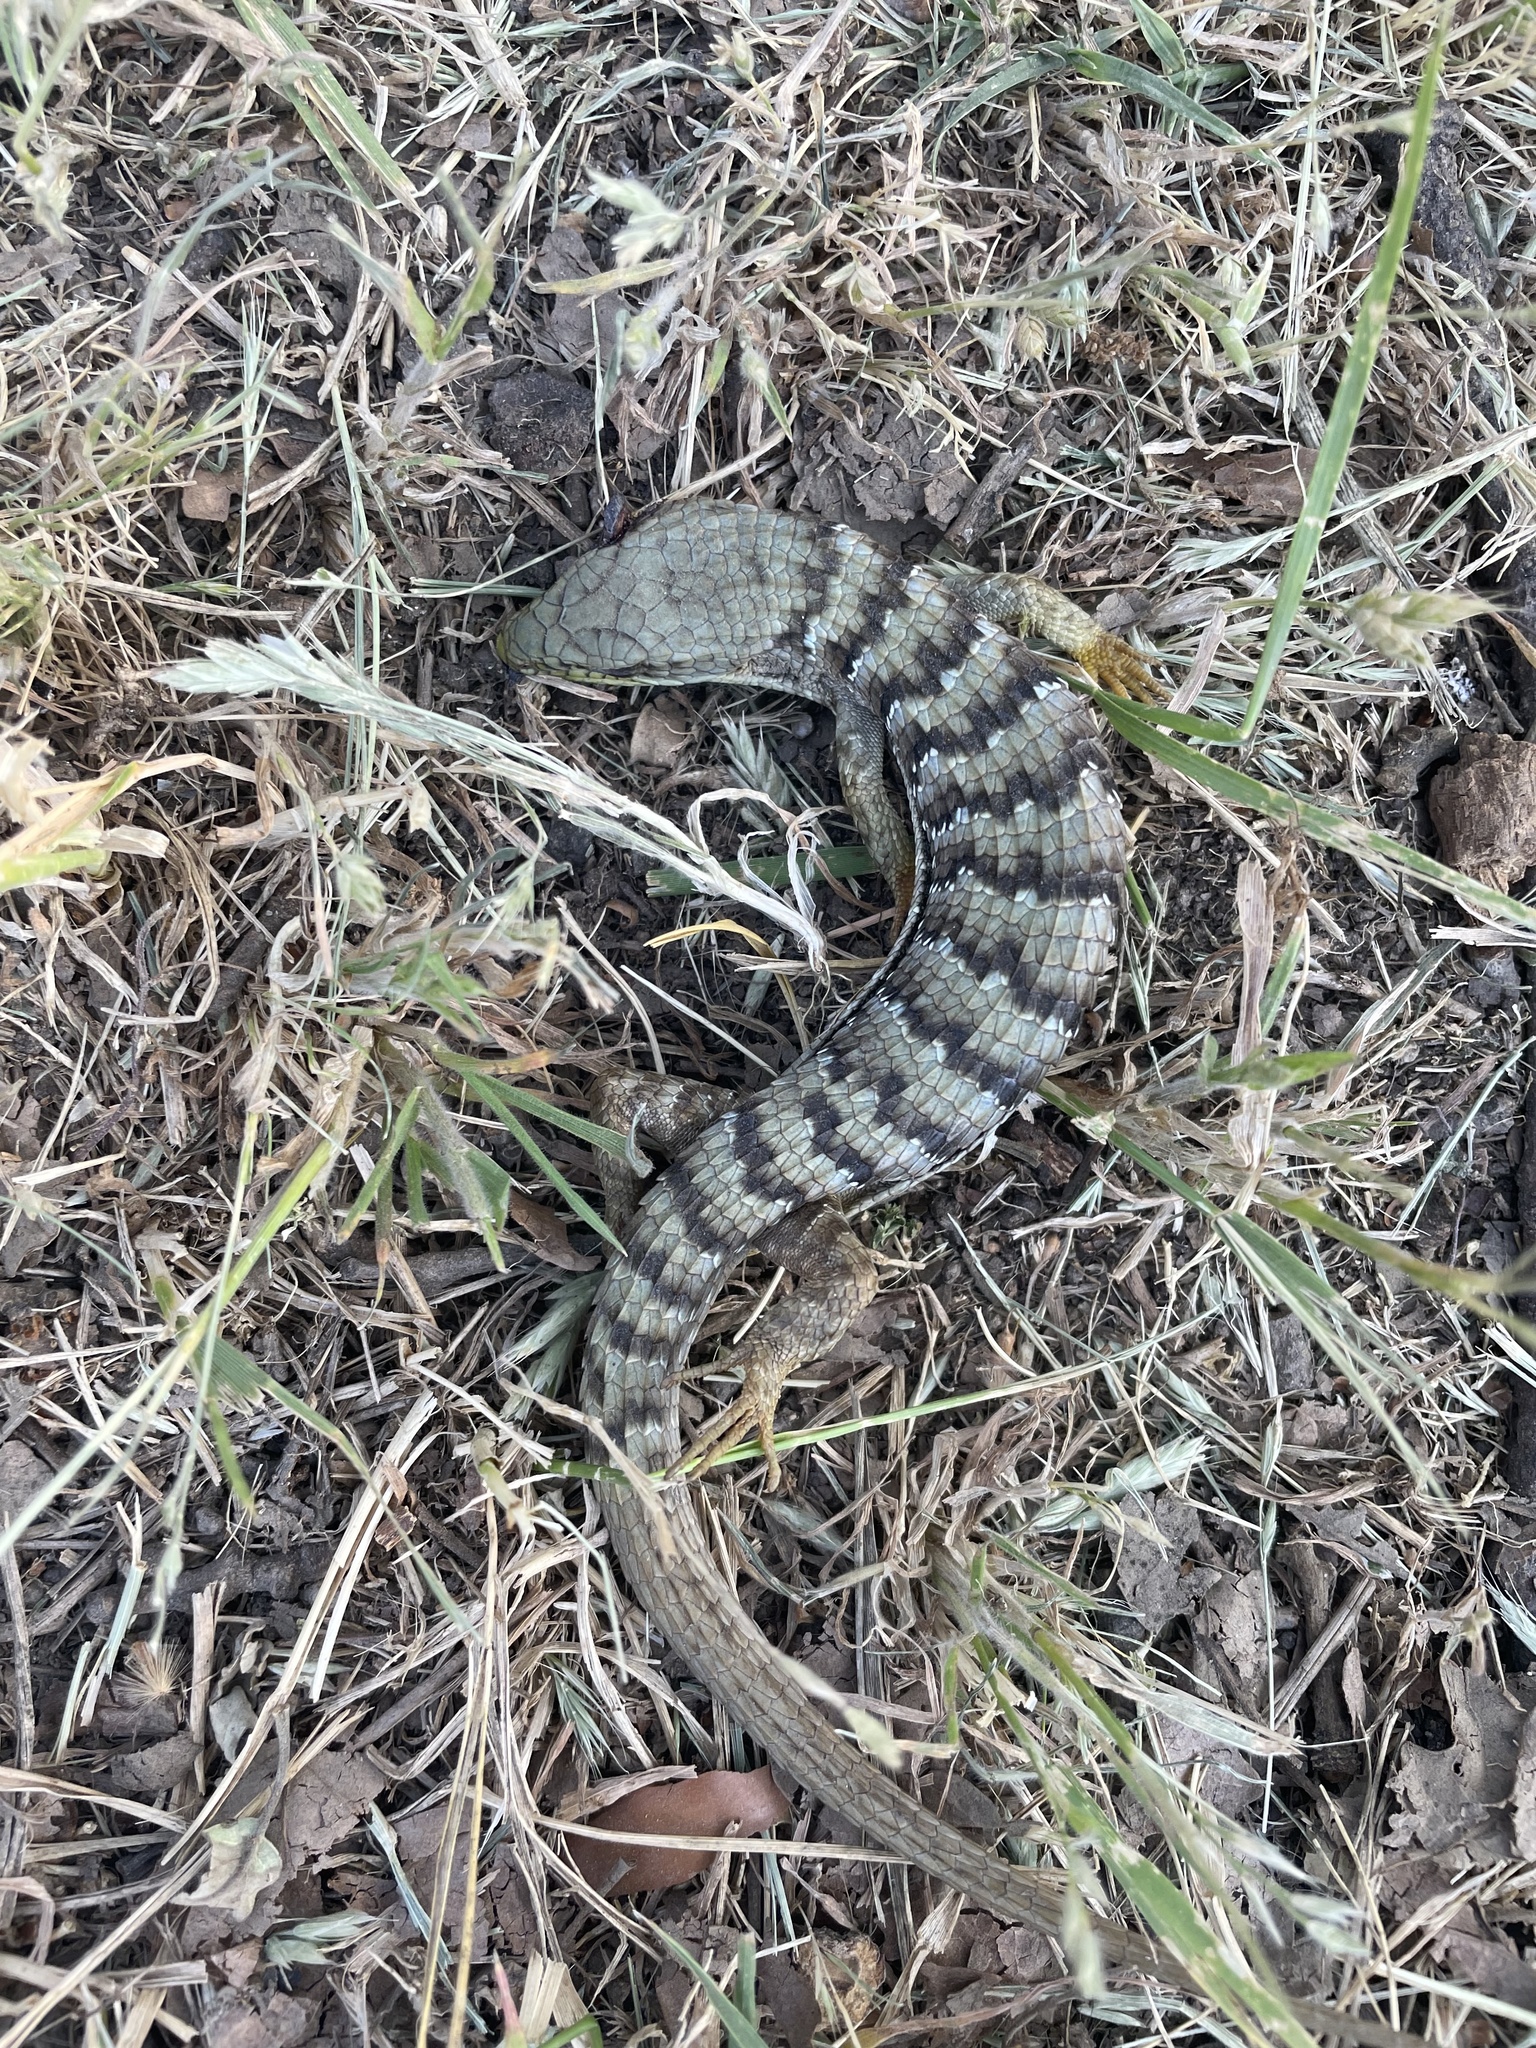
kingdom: Animalia
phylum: Chordata
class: Squamata
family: Anguidae
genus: Elgaria
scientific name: Elgaria multicarinata
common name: Southern alligator lizard
